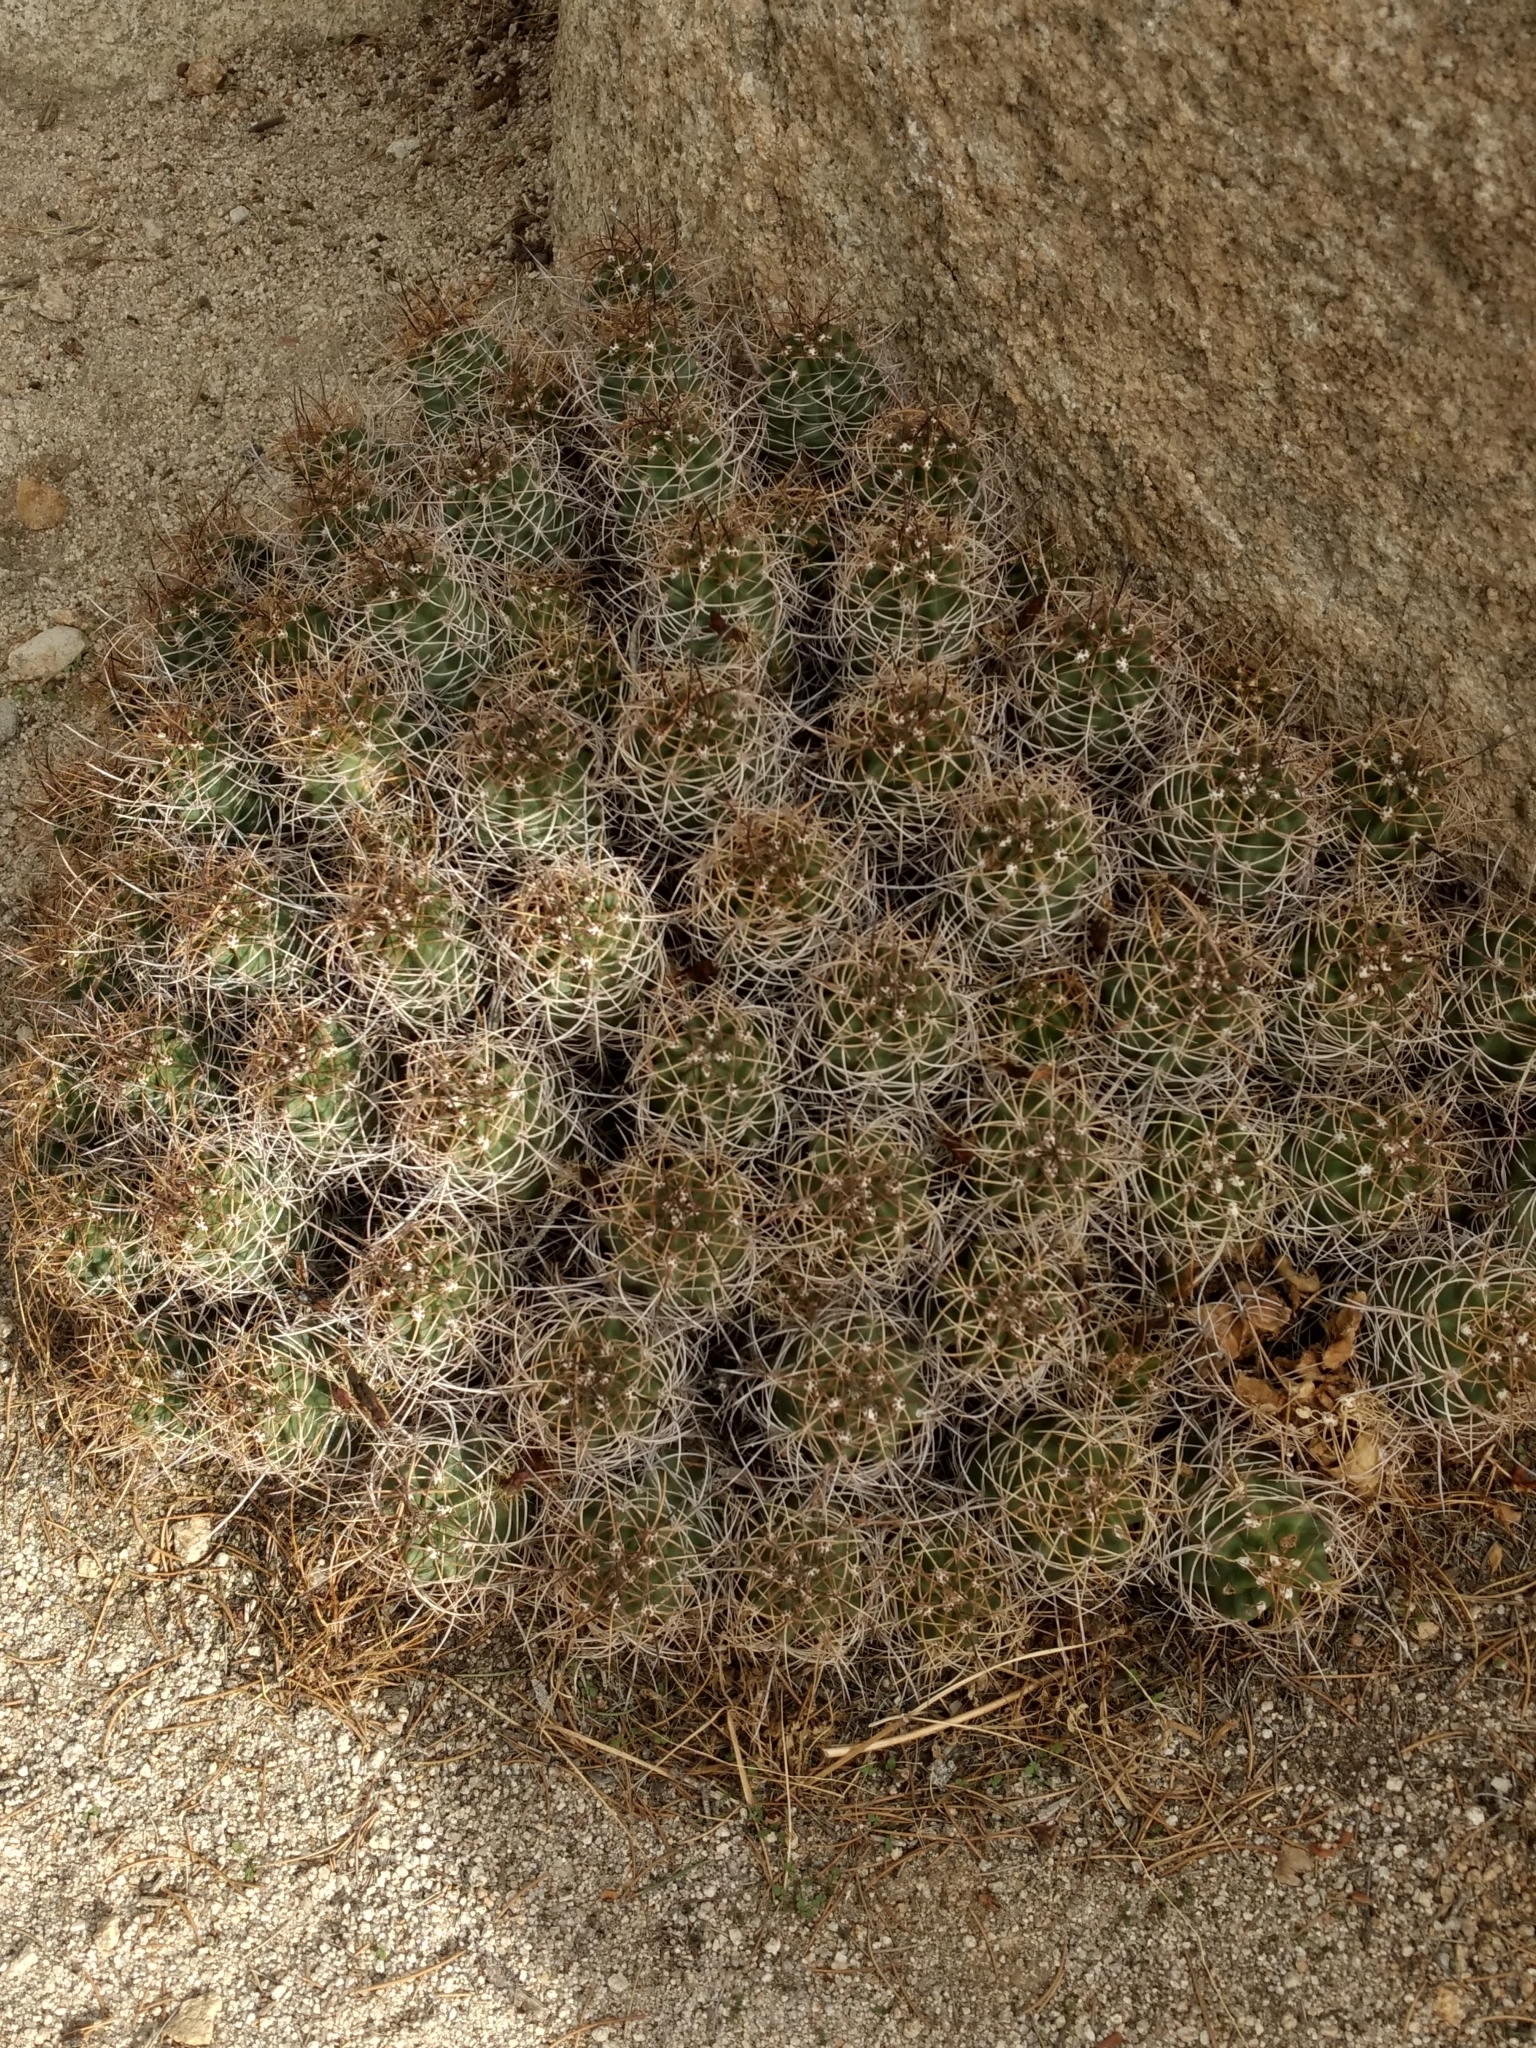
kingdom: Plantae
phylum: Tracheophyta
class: Magnoliopsida
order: Caryophyllales
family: Cactaceae
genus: Echinocereus
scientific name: Echinocereus triglochidiatus
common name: Claretcup hedgehog
